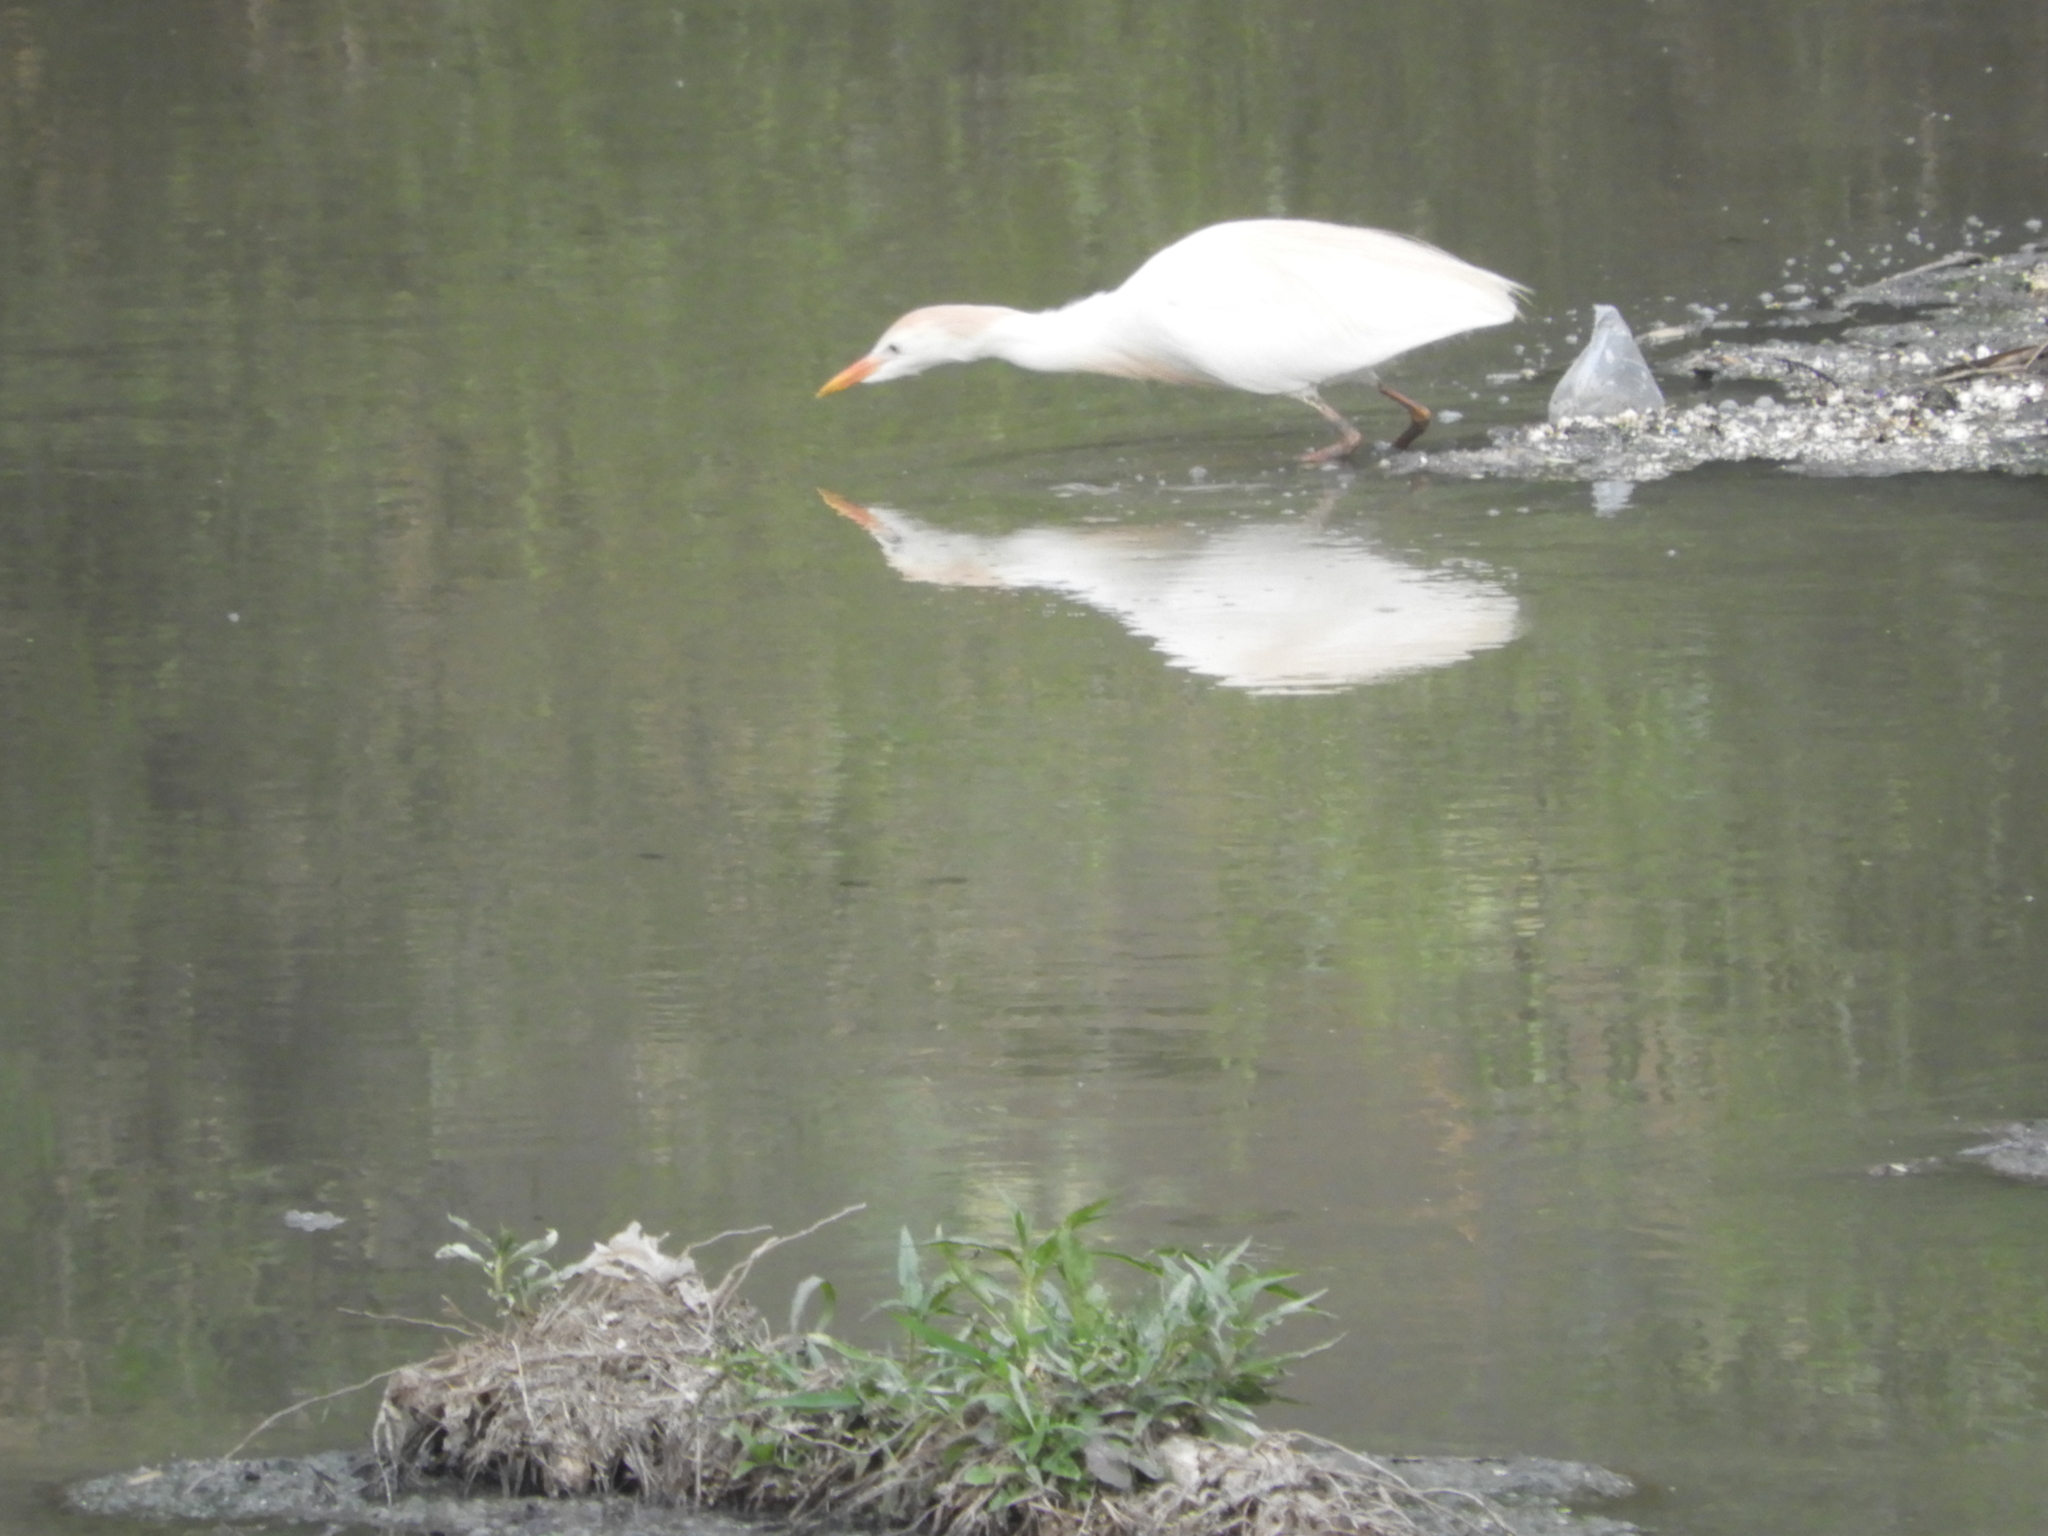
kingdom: Animalia
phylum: Chordata
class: Aves
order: Pelecaniformes
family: Ardeidae
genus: Bubulcus
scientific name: Bubulcus ibis
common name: Cattle egret
